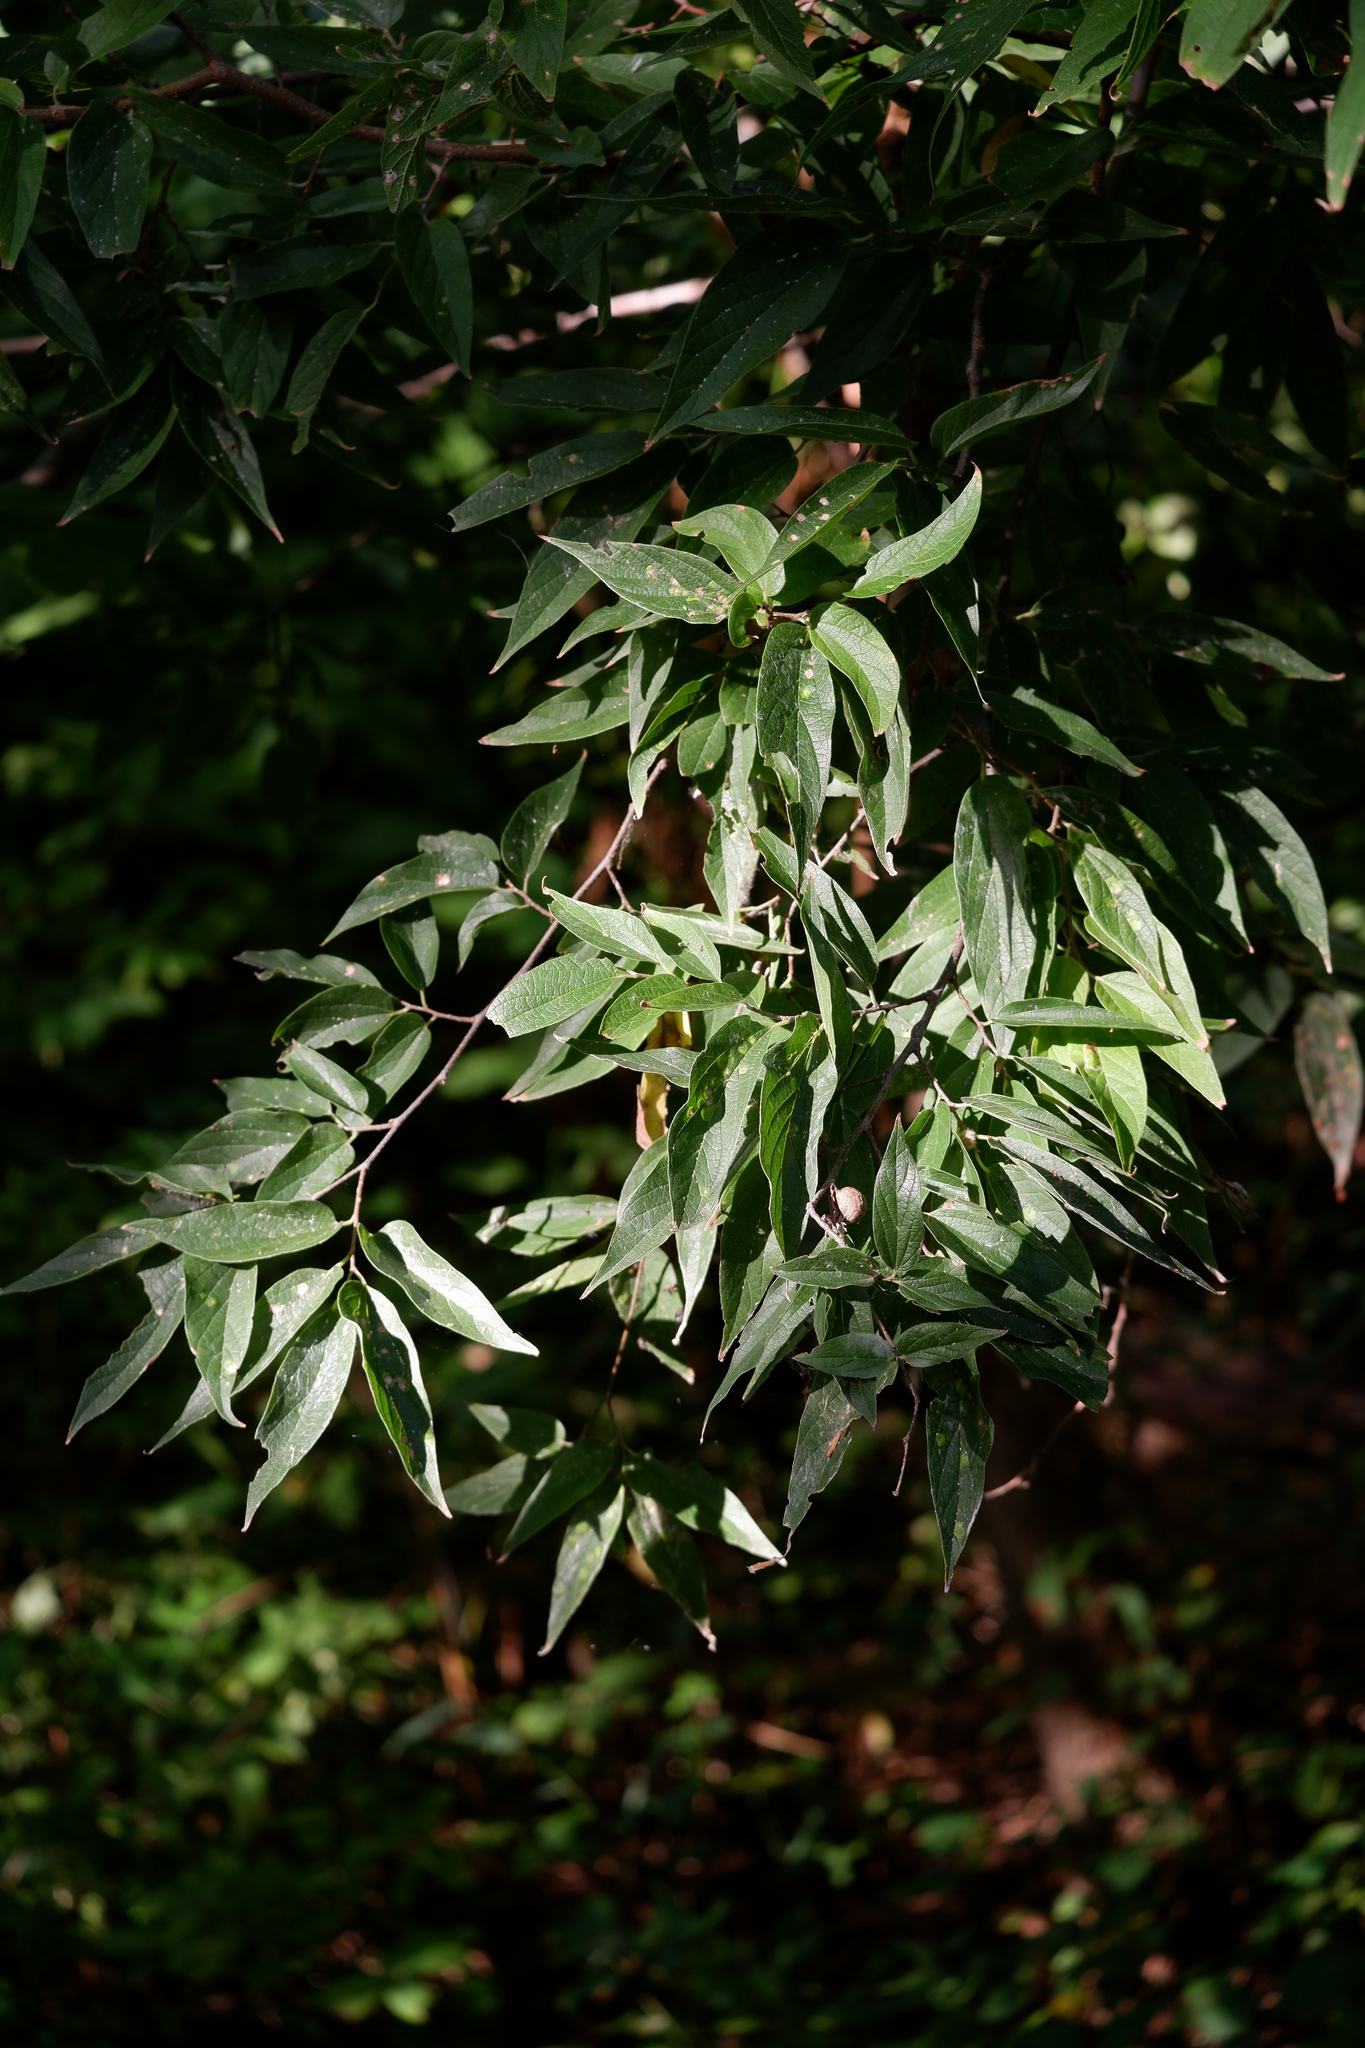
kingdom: Plantae
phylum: Tracheophyta
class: Magnoliopsida
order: Rosales
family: Cannabaceae
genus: Celtis
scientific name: Celtis laevigata
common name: Sugarberry
